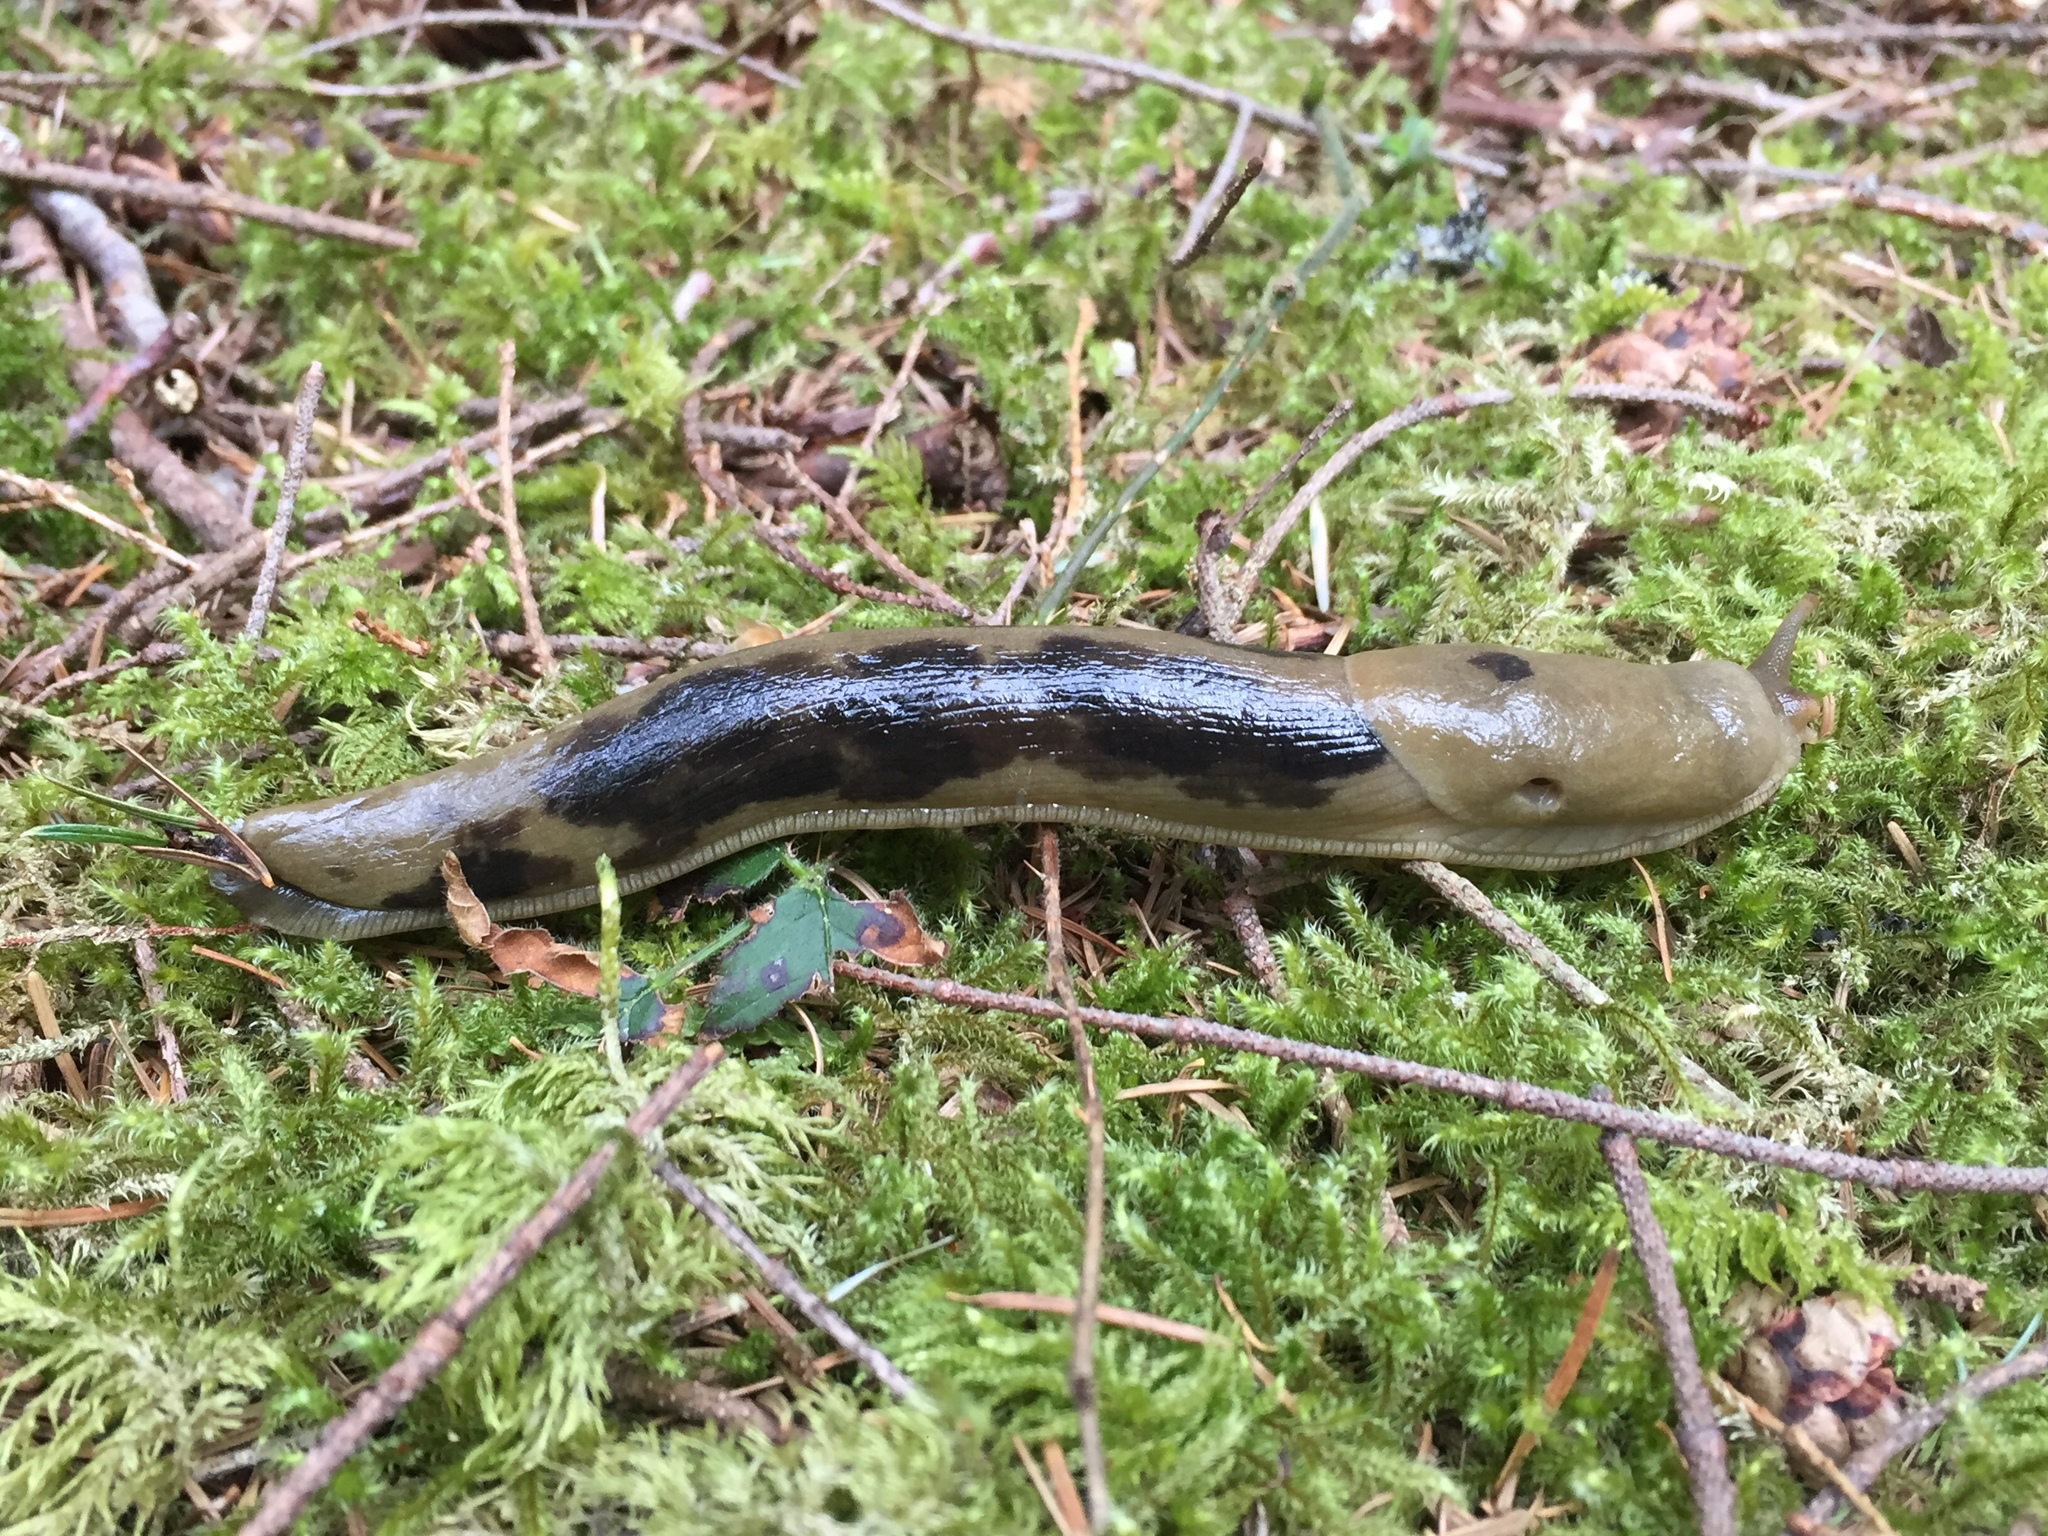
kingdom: Animalia
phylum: Mollusca
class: Gastropoda
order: Stylommatophora
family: Ariolimacidae
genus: Ariolimax
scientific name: Ariolimax columbianus
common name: Pacific banana slug
